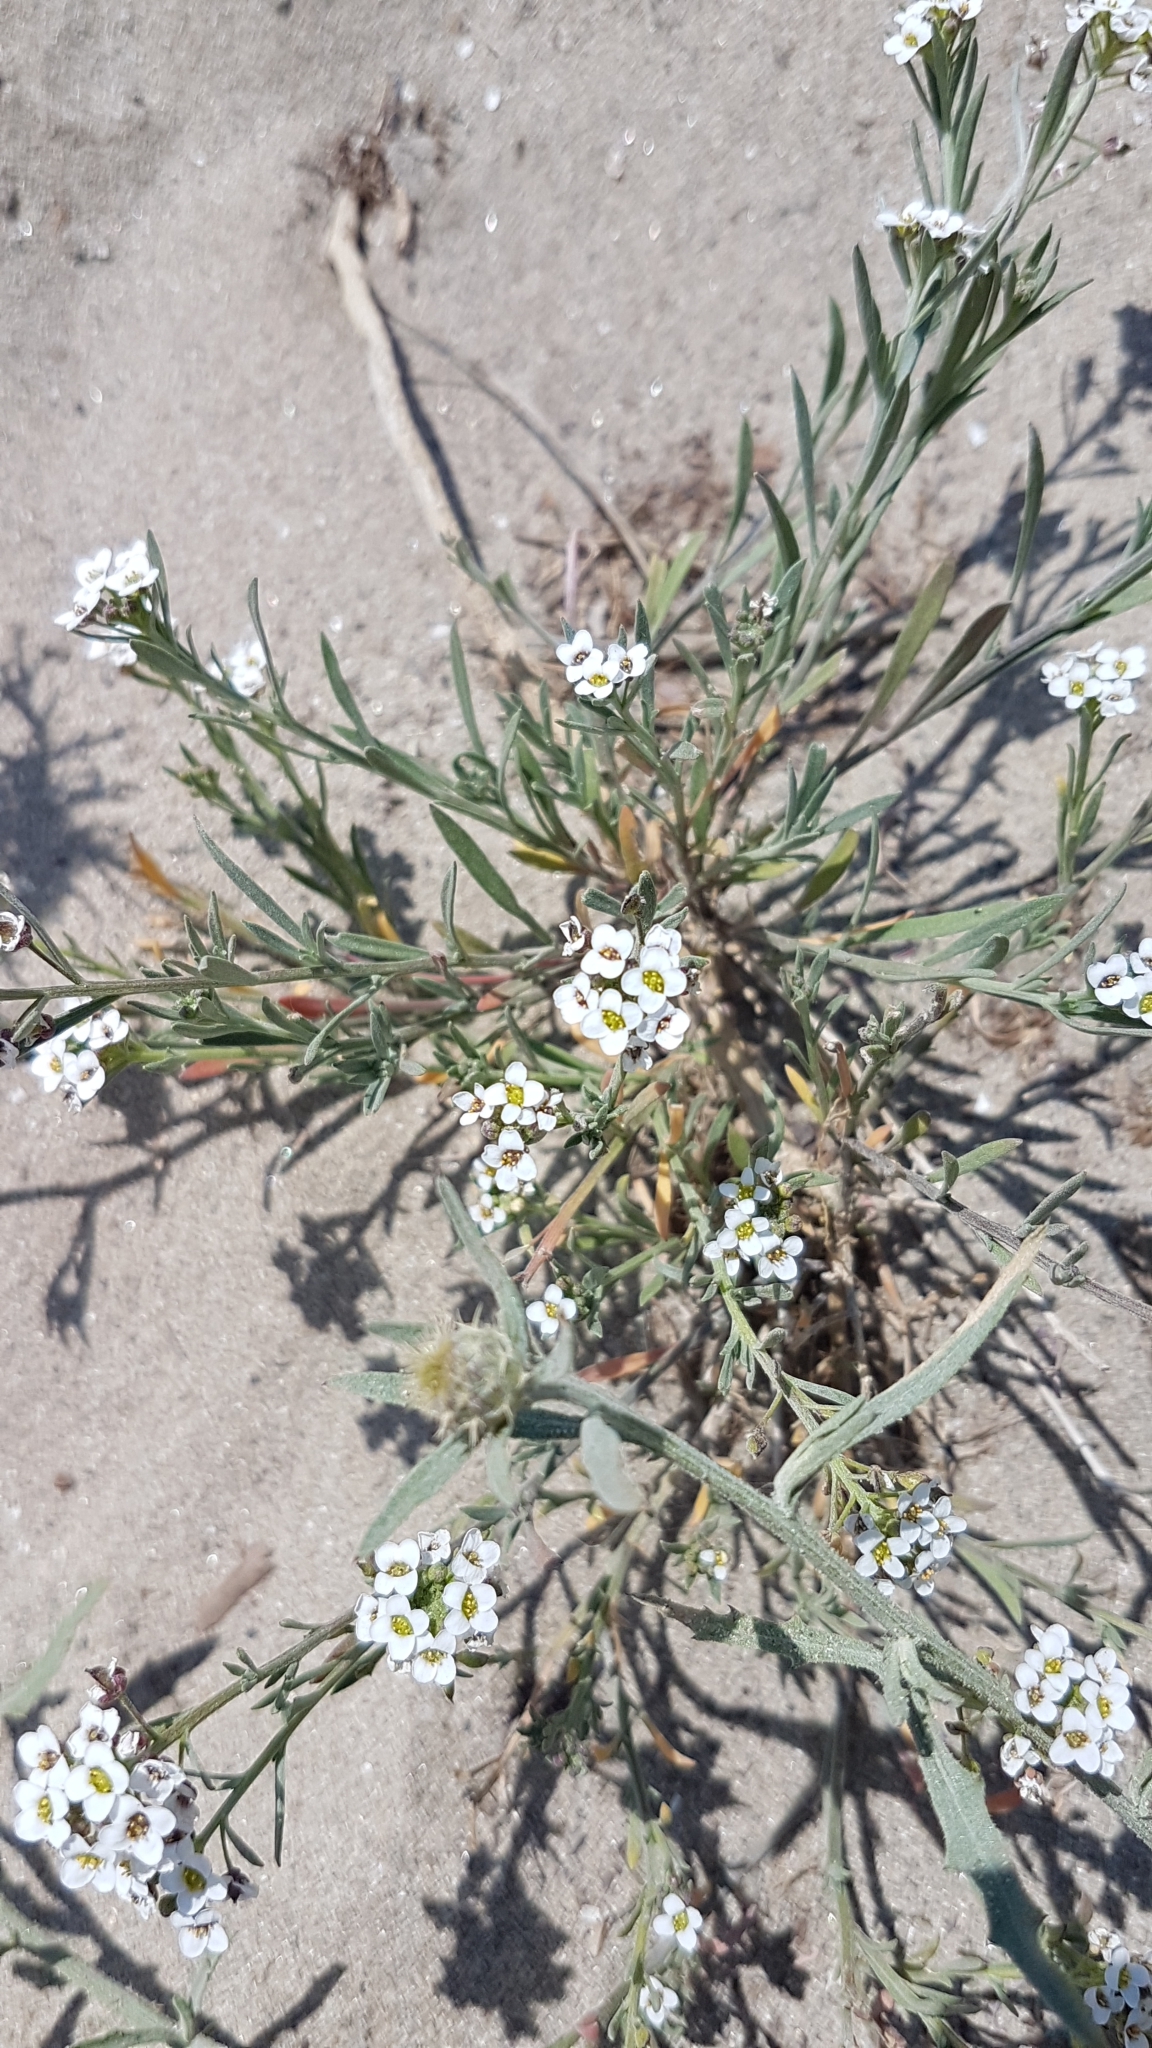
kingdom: Plantae
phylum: Tracheophyta
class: Magnoliopsida
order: Brassicales
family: Brassicaceae
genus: Lobularia
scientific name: Lobularia maritima
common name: Sweet alison
